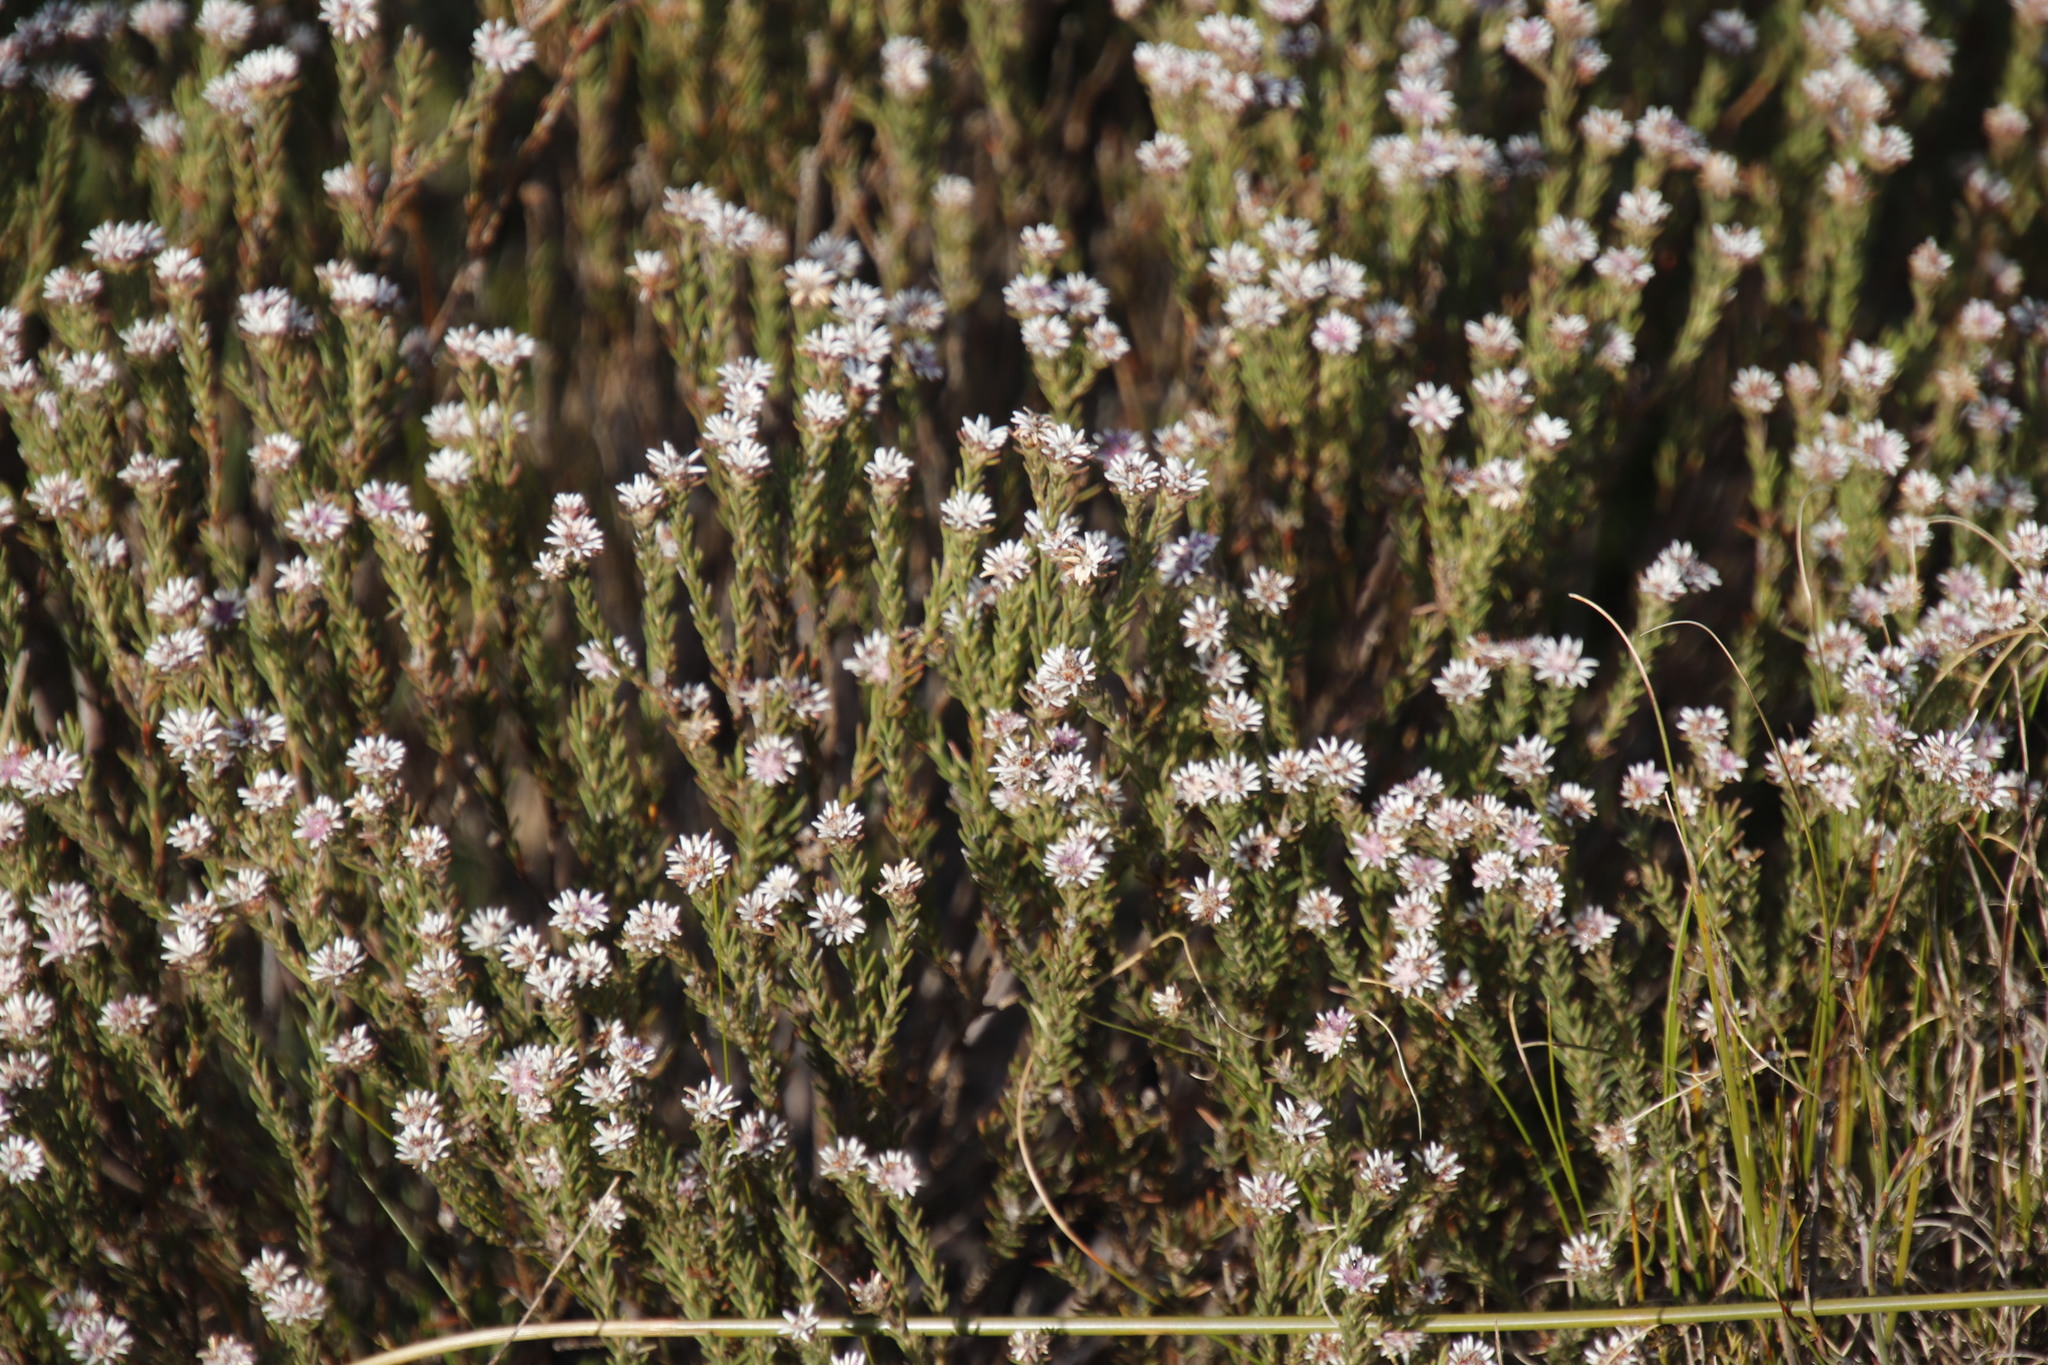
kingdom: Plantae
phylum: Tracheophyta
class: Magnoliopsida
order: Bruniales
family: Bruniaceae
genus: Staavia
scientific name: Staavia radiata
